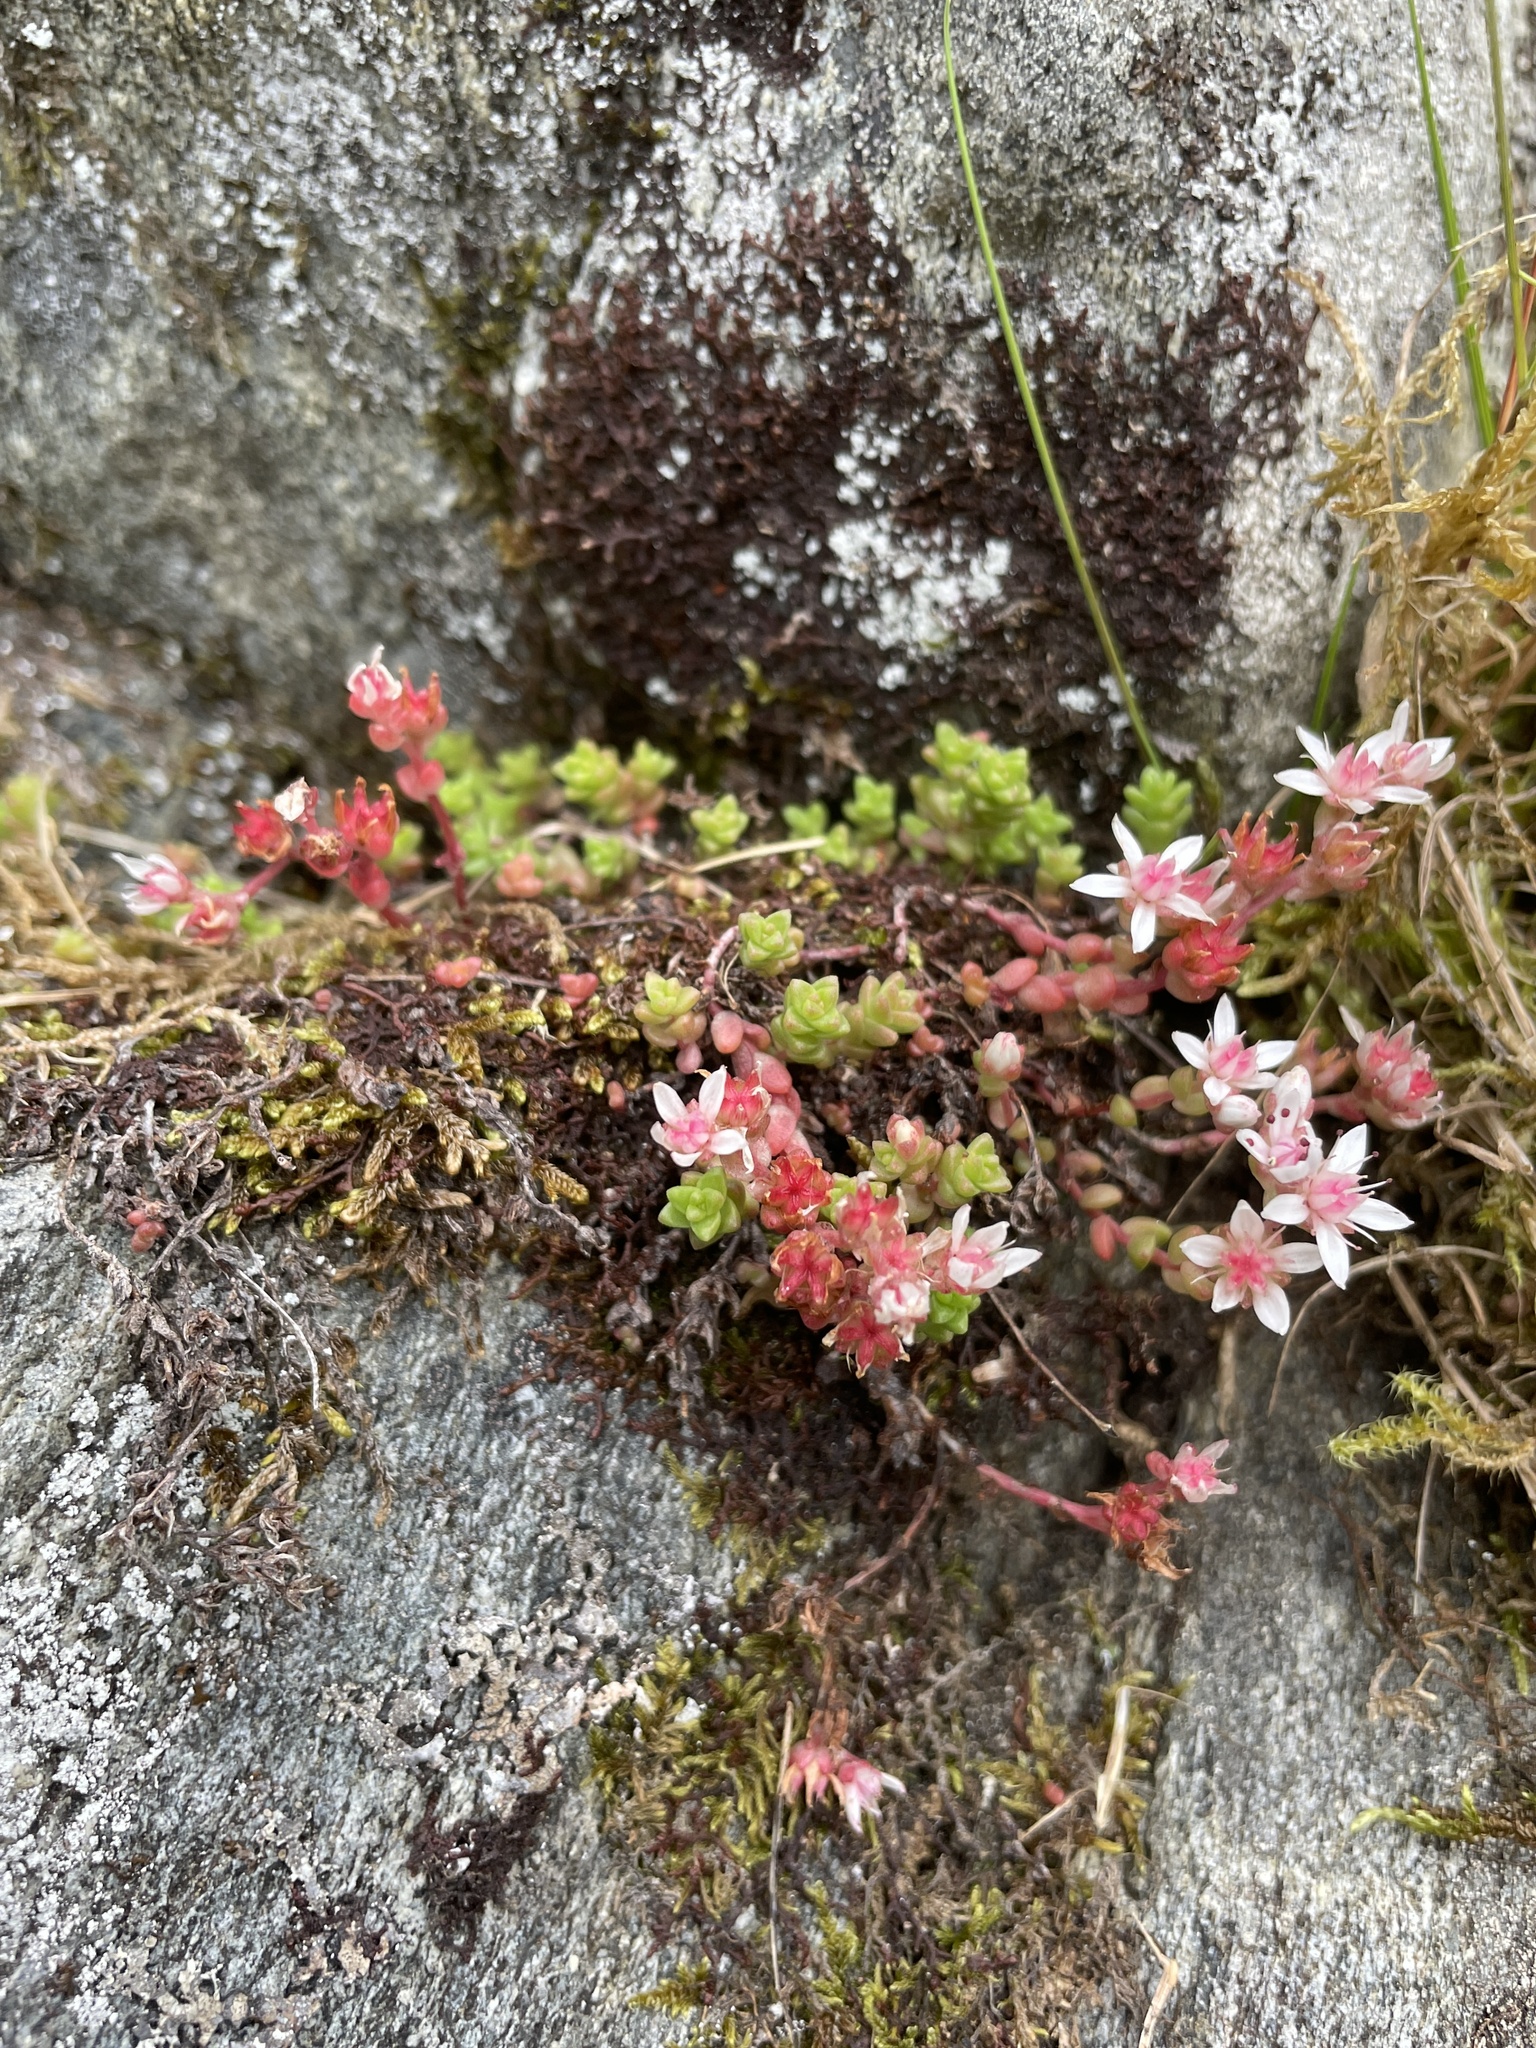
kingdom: Plantae
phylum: Tracheophyta
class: Magnoliopsida
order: Saxifragales
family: Crassulaceae
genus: Sedum
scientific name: Sedum anglicum
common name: English stonecrop
